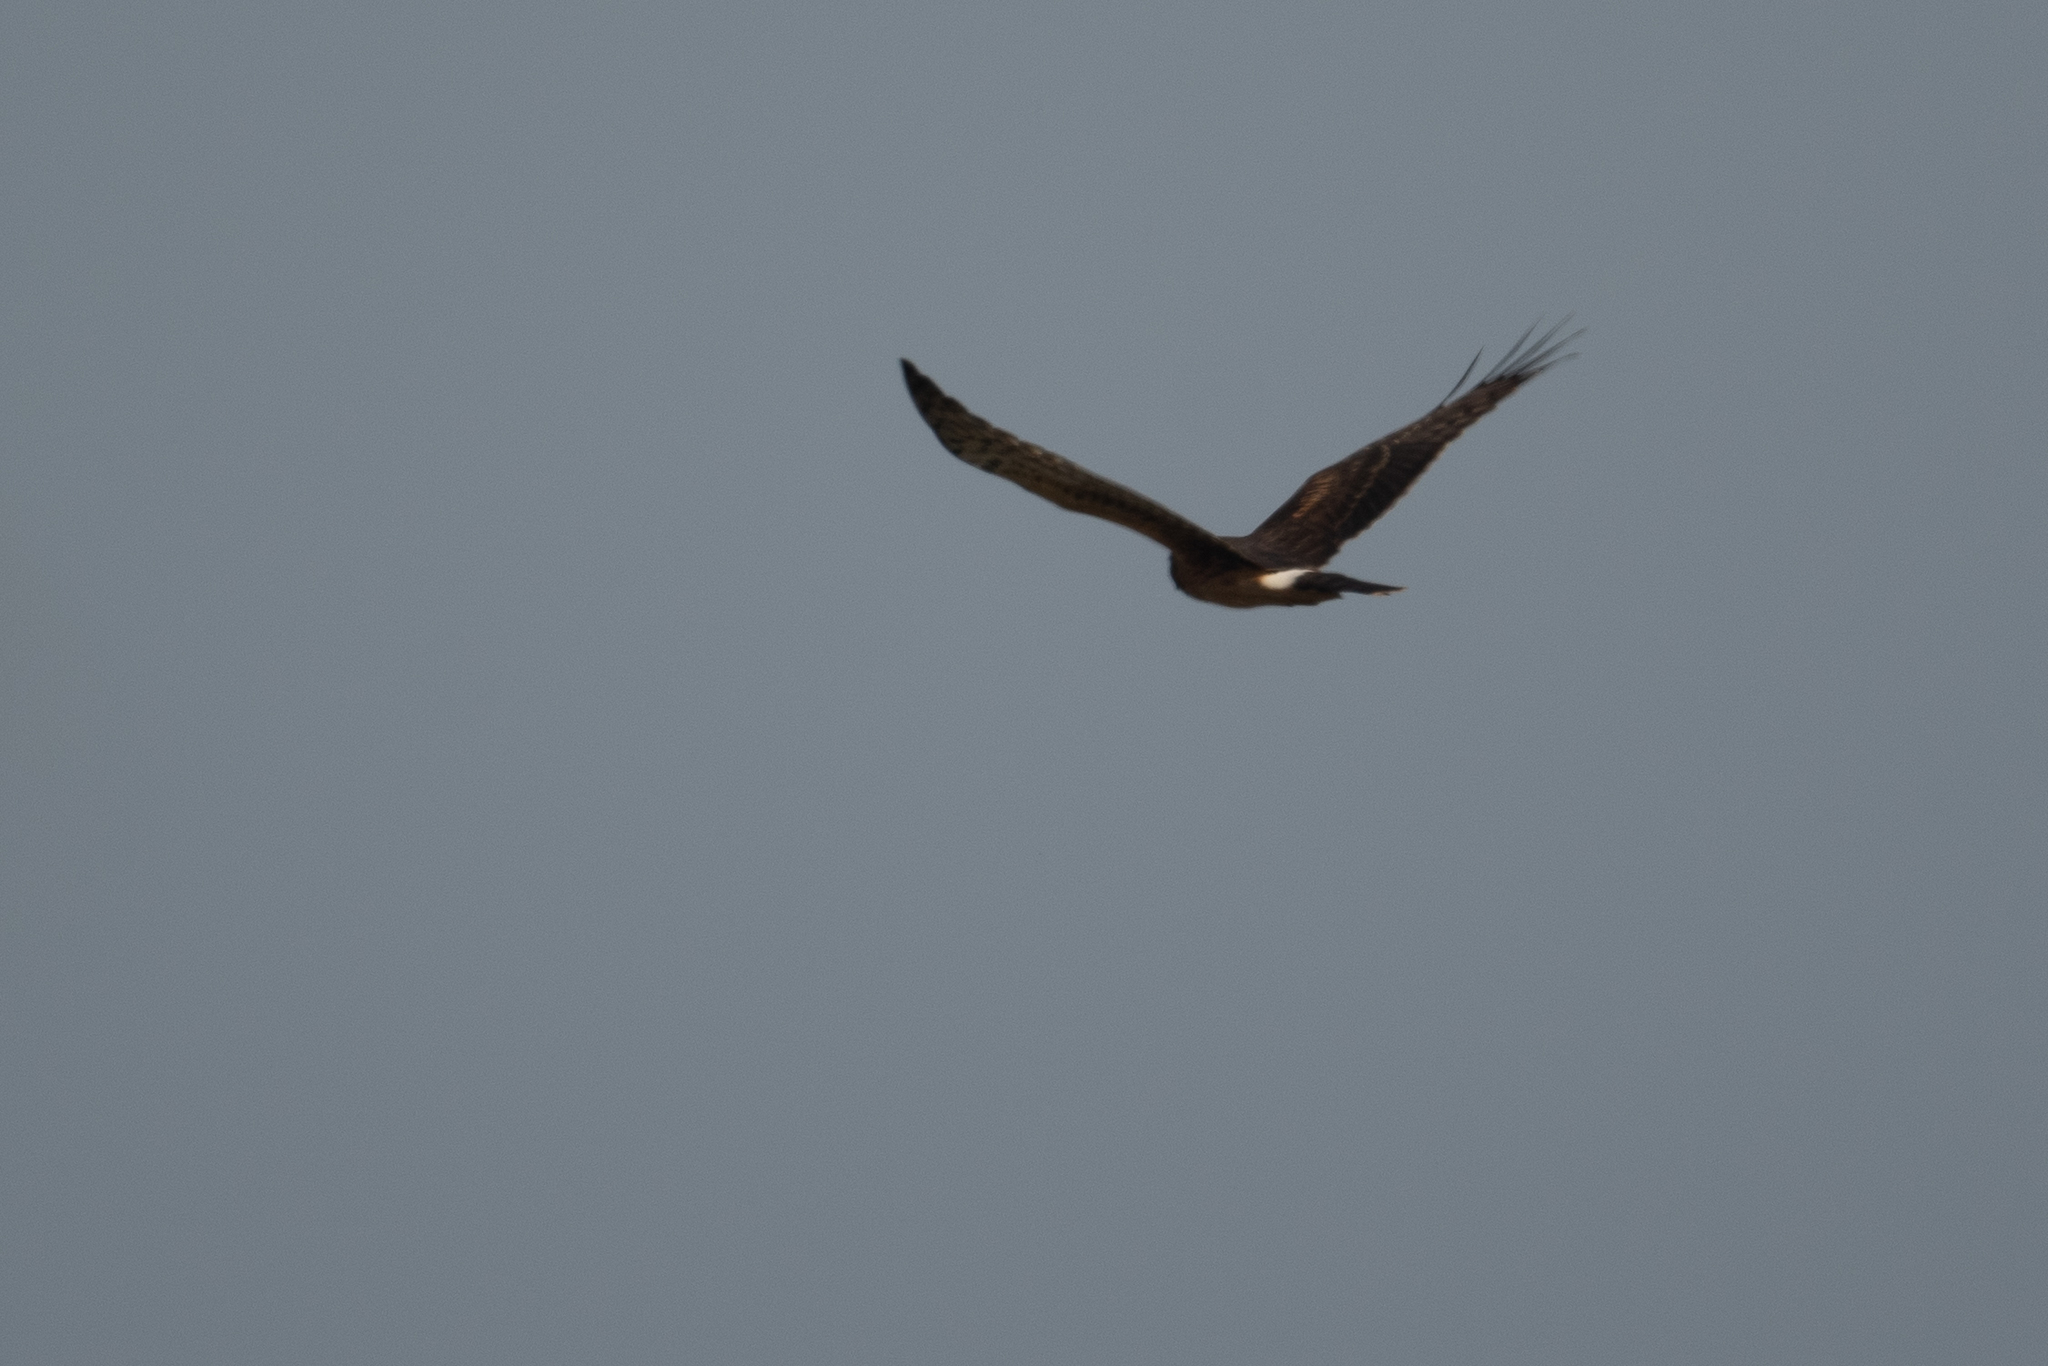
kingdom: Animalia
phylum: Chordata
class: Aves
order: Accipitriformes
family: Accipitridae
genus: Circus
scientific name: Circus cyaneus
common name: Hen harrier
